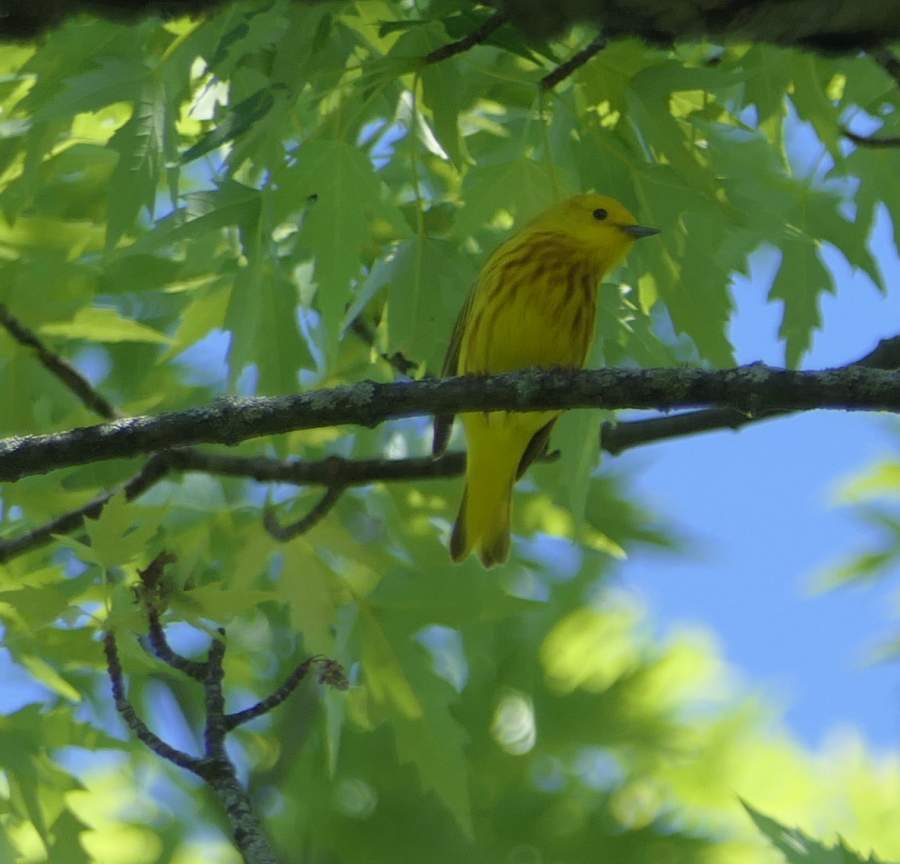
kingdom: Animalia
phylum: Chordata
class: Aves
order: Passeriformes
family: Parulidae
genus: Setophaga
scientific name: Setophaga petechia
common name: Yellow warbler
